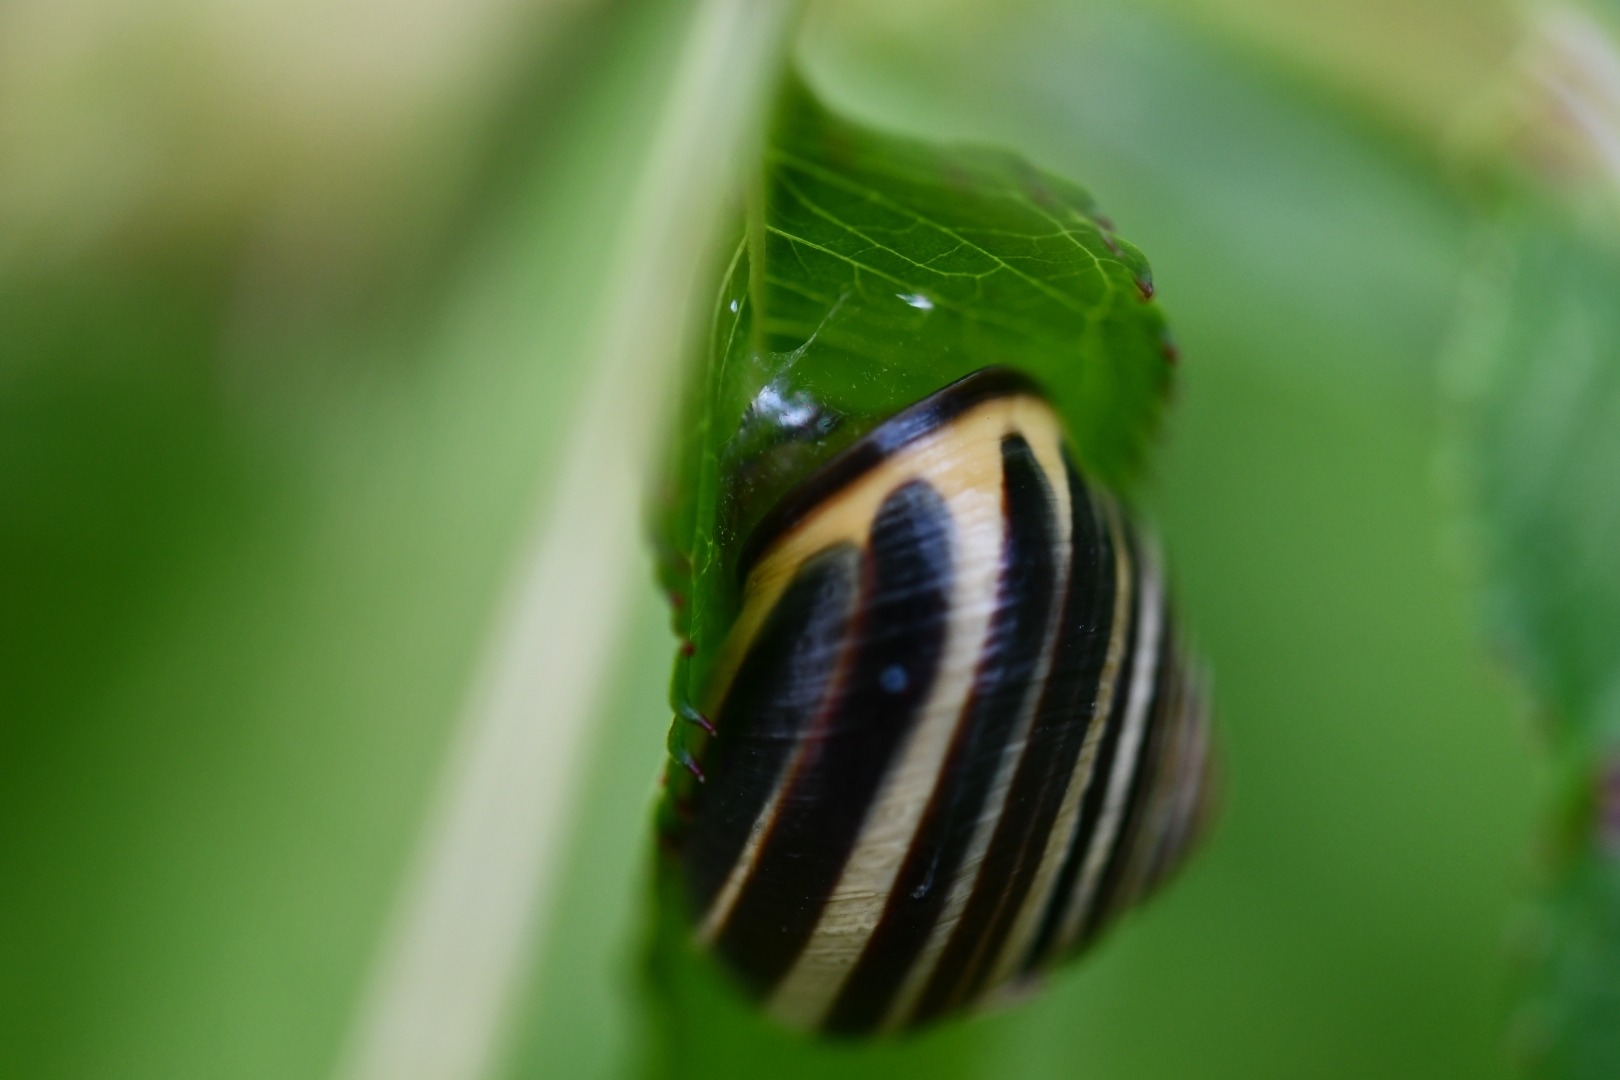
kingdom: Animalia
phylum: Mollusca
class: Gastropoda
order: Stylommatophora
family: Helicidae
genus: Cepaea
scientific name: Cepaea nemoralis
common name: Grovesnail
